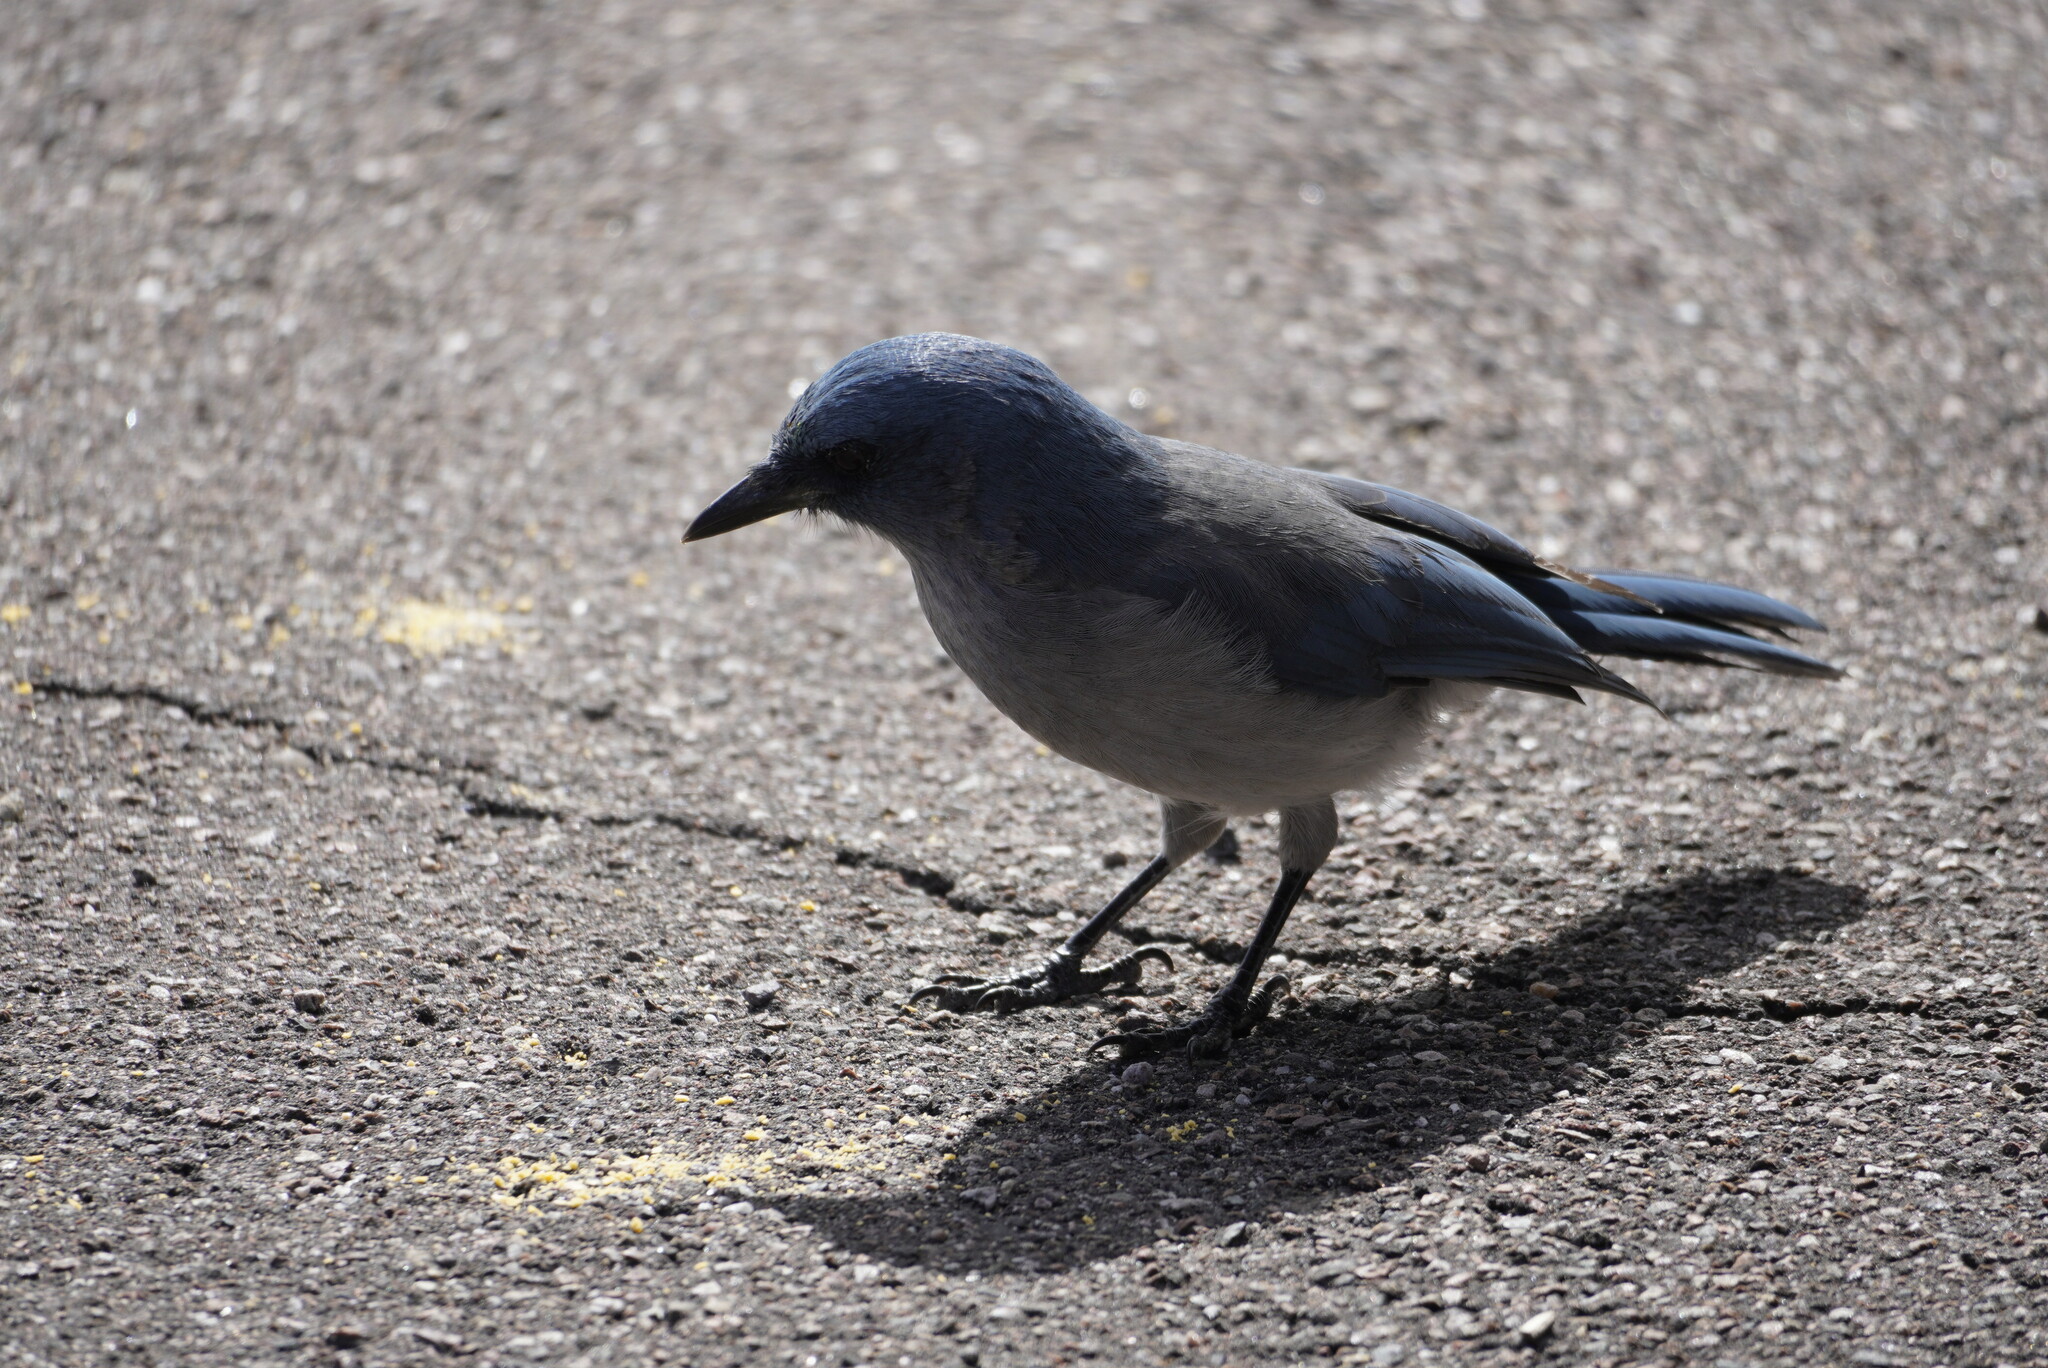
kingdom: Animalia
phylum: Chordata
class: Aves
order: Passeriformes
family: Corvidae
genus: Aphelocoma
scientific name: Aphelocoma wollweberi
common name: Mexican jay
